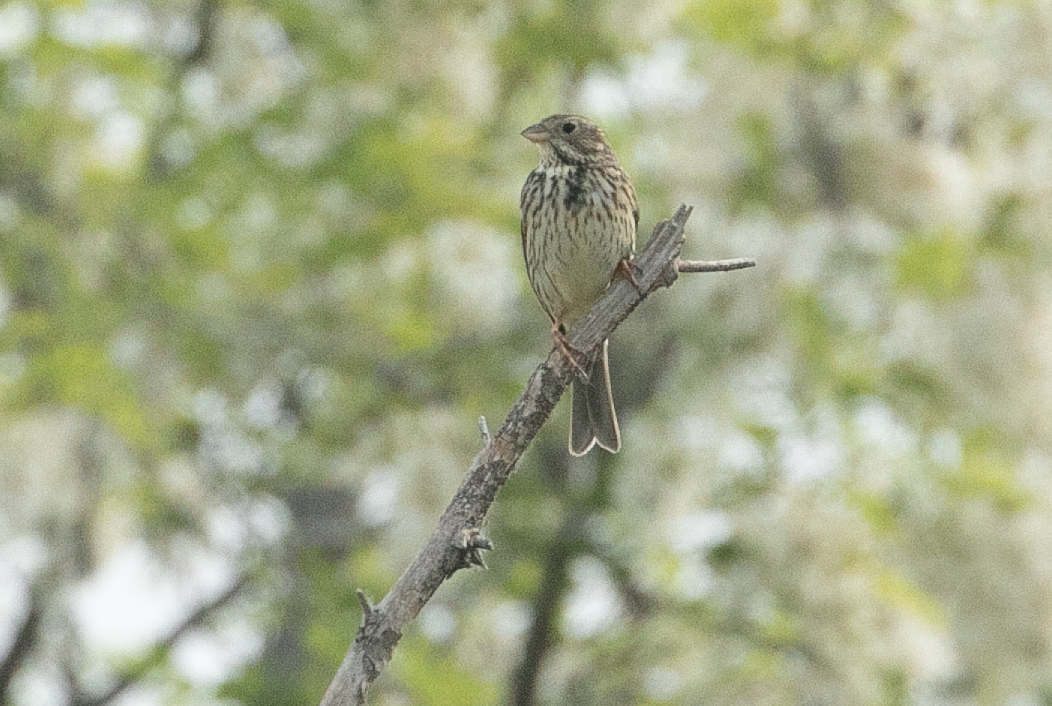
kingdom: Animalia
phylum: Chordata
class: Aves
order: Passeriformes
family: Emberizidae
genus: Emberiza
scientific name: Emberiza calandra
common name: Corn bunting
